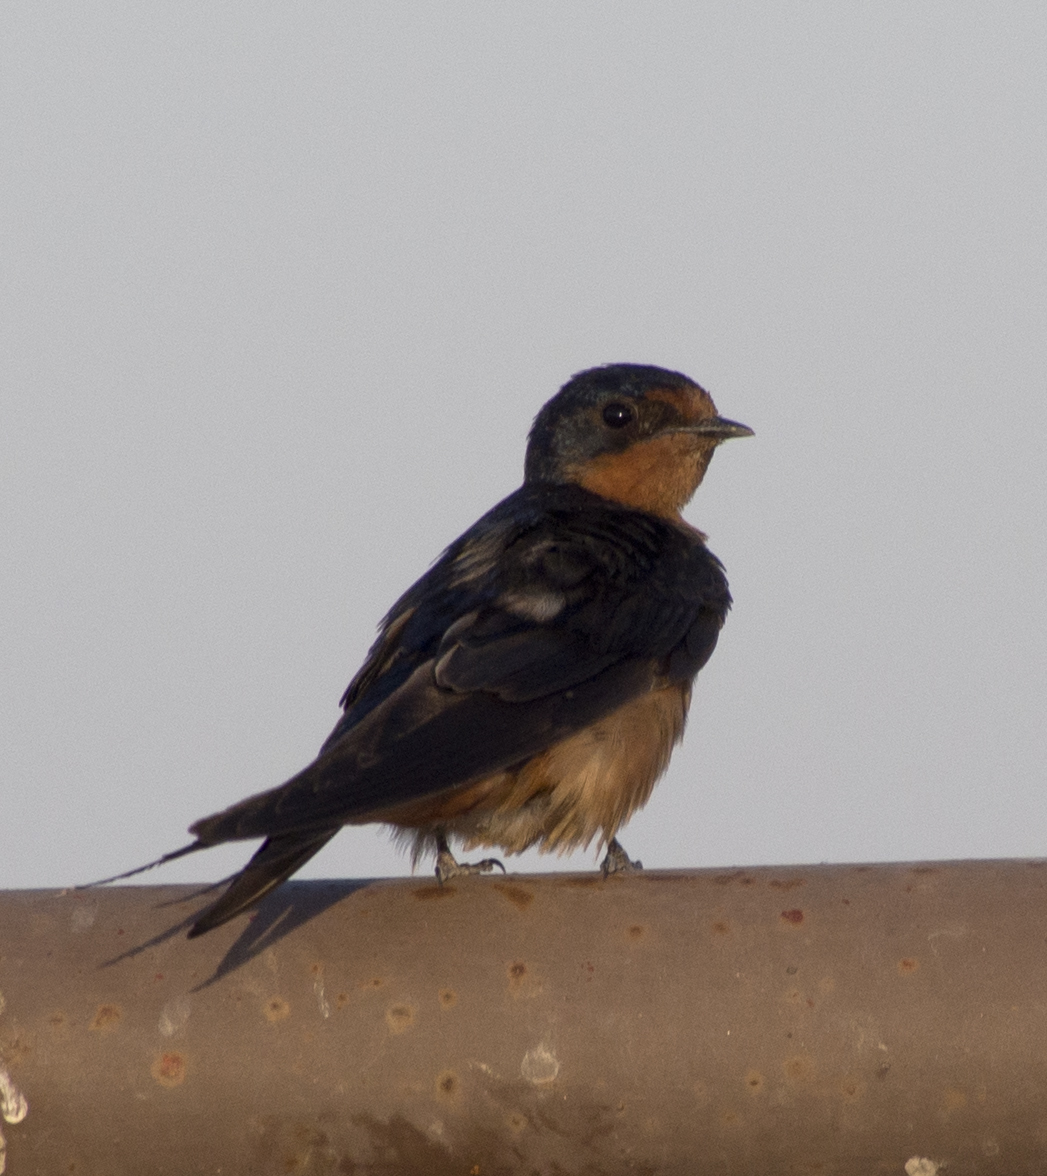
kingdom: Animalia
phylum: Chordata
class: Aves
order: Passeriformes
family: Hirundinidae
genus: Hirundo
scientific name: Hirundo rustica
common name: Barn swallow
